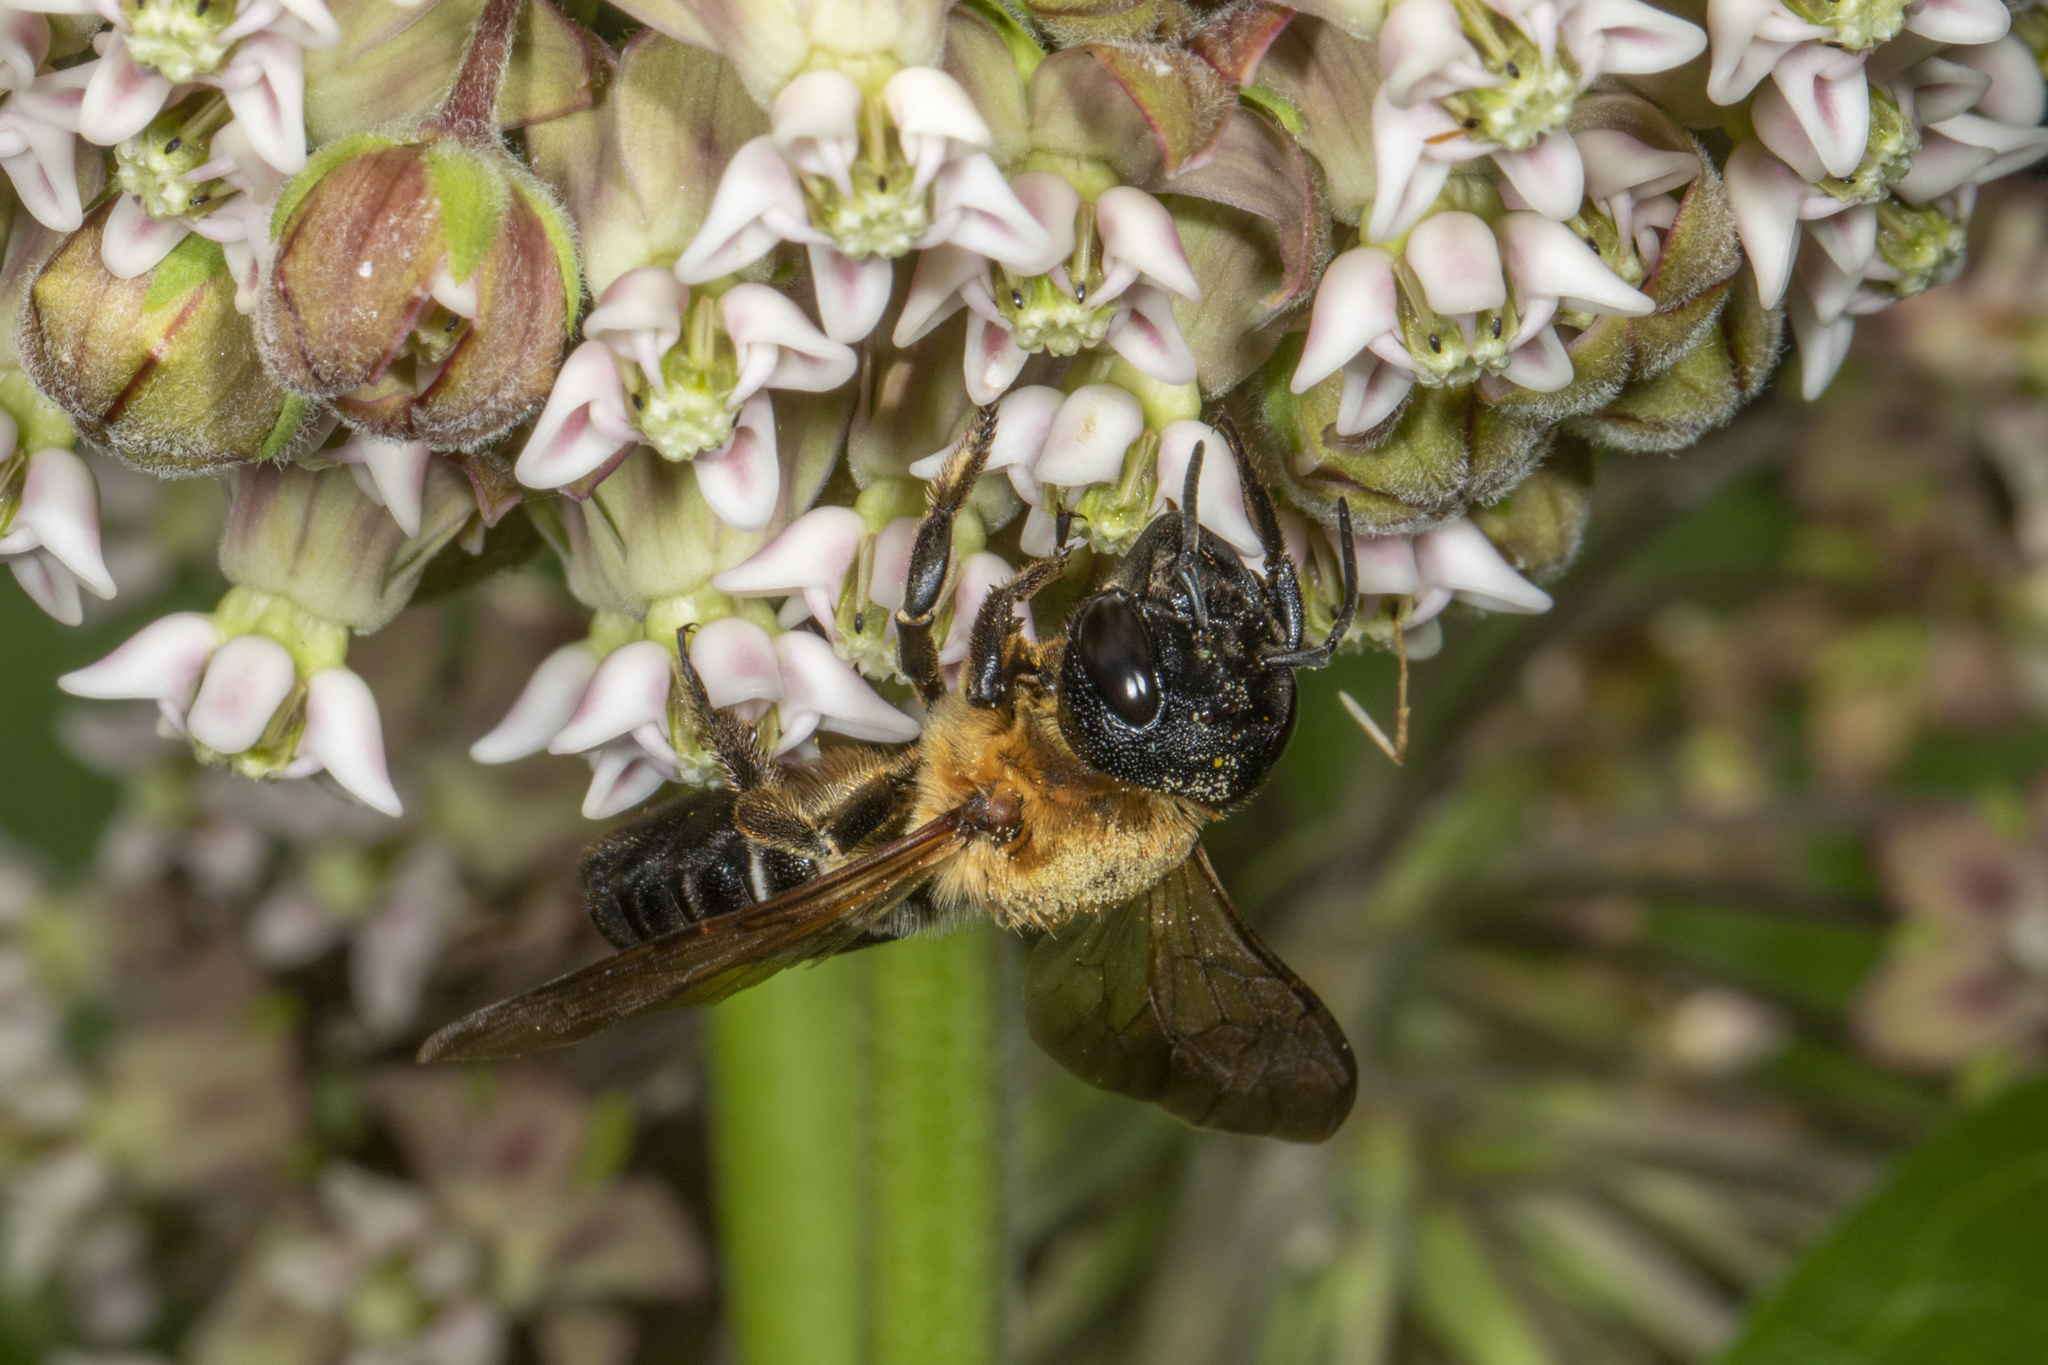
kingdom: Animalia
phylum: Arthropoda
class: Insecta
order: Hymenoptera
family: Megachilidae
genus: Megachile
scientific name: Megachile sculpturalis
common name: Sculptured resin bee
